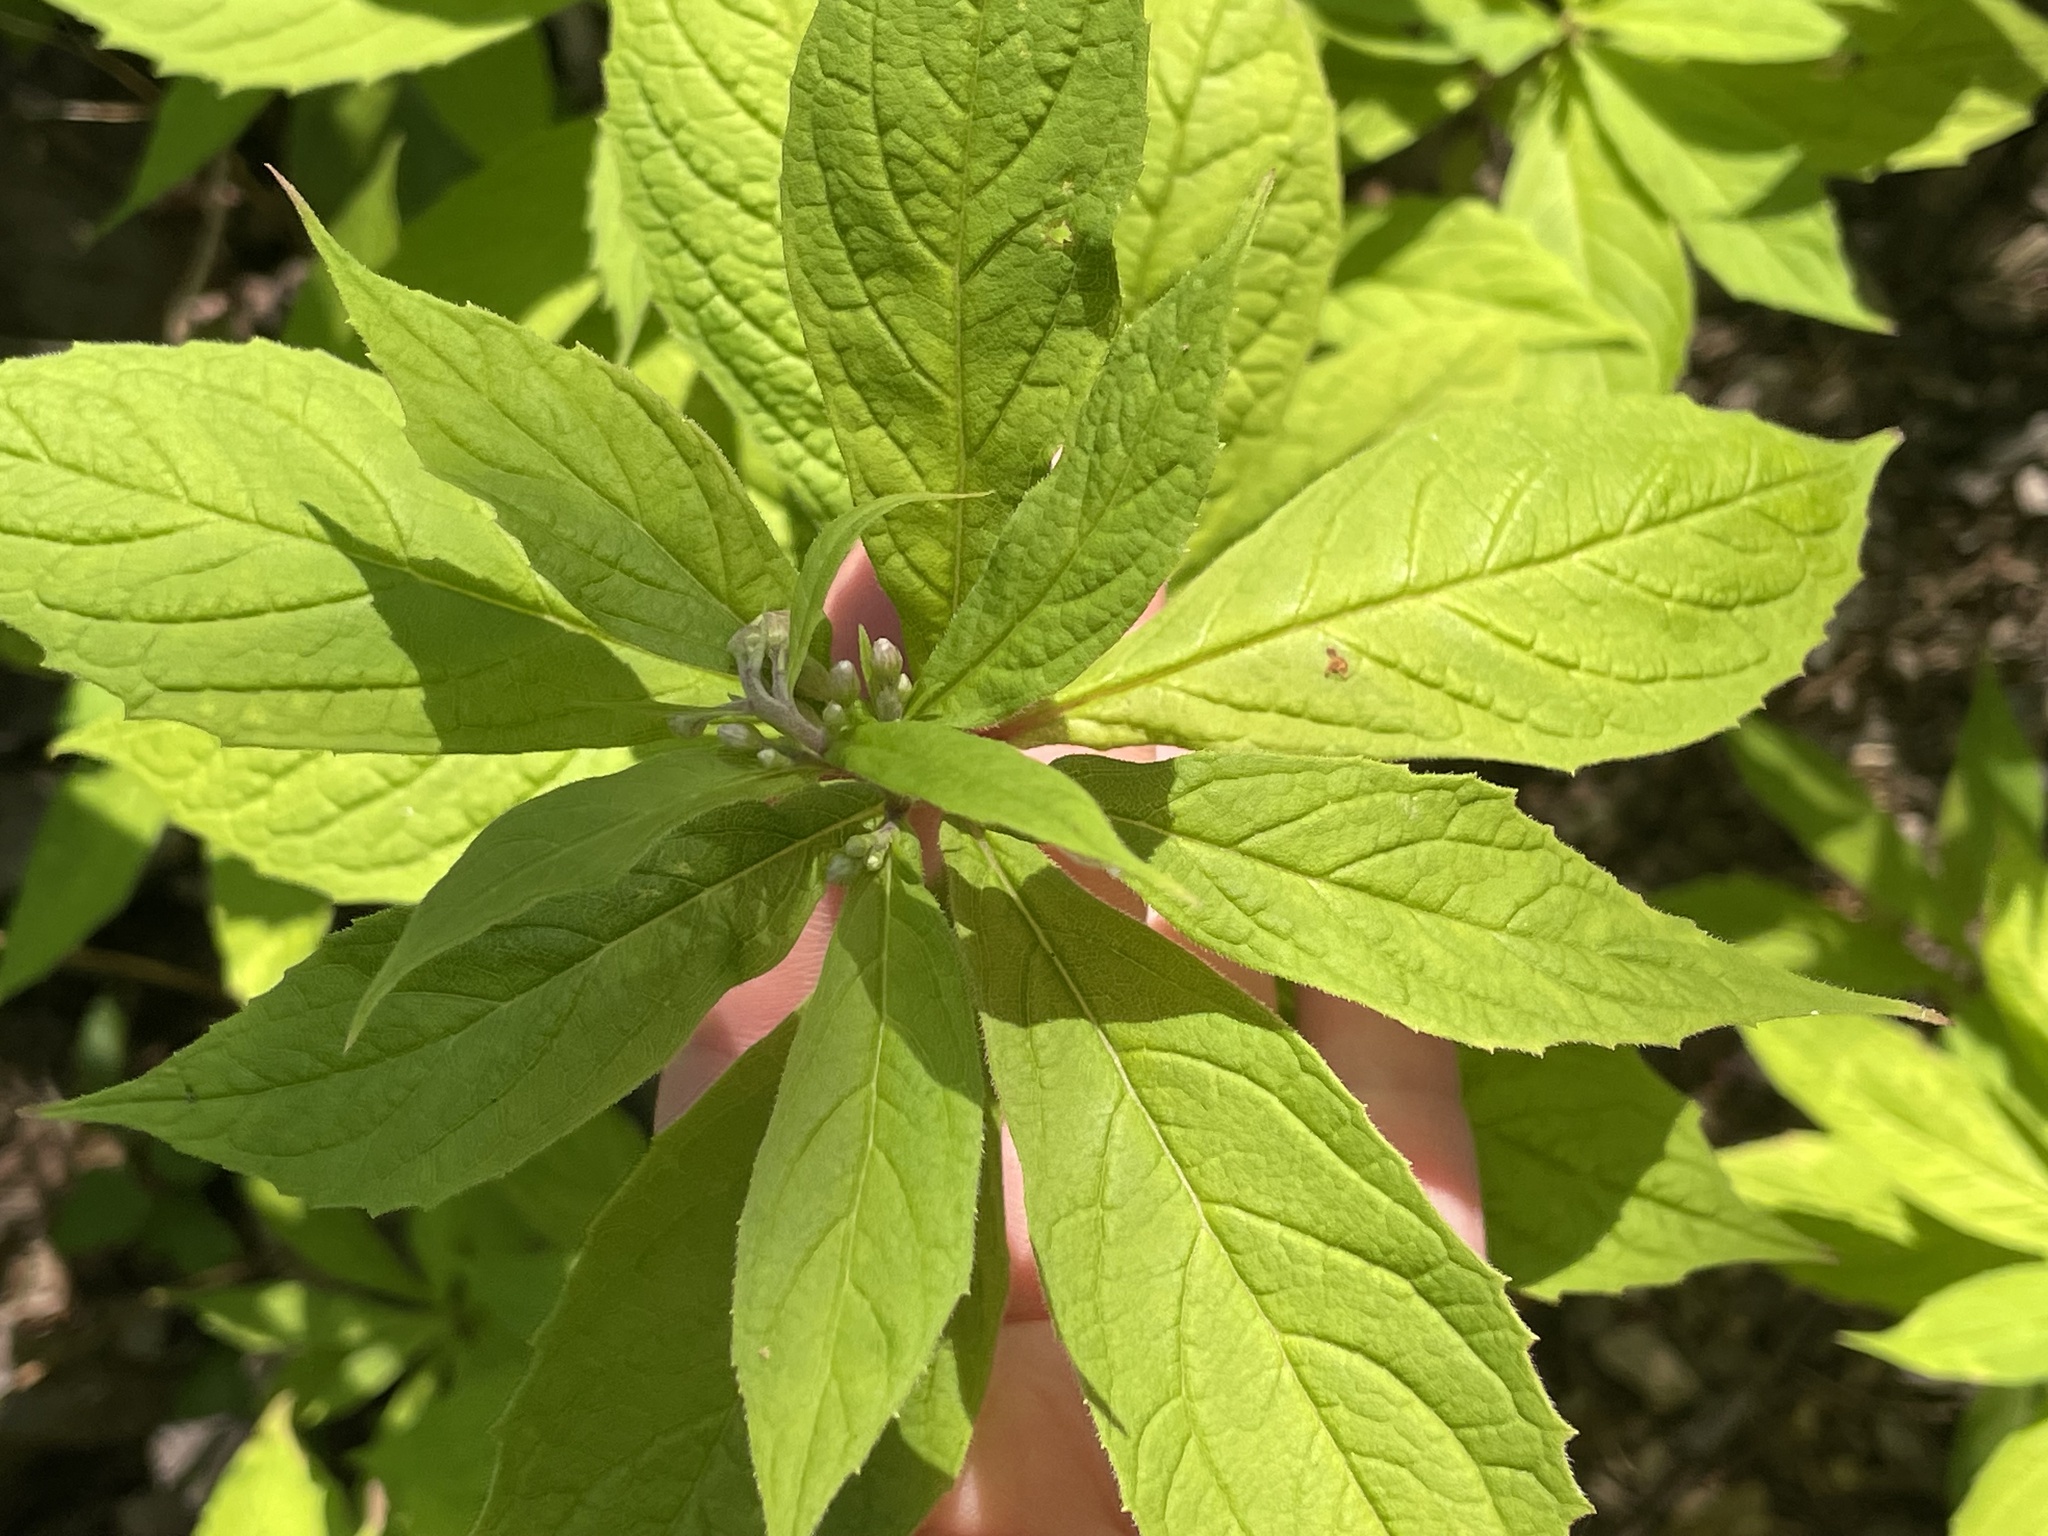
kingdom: Plantae
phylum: Tracheophyta
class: Magnoliopsida
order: Asterales
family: Asteraceae
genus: Oclemena
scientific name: Oclemena acuminata
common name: Mountain aster
